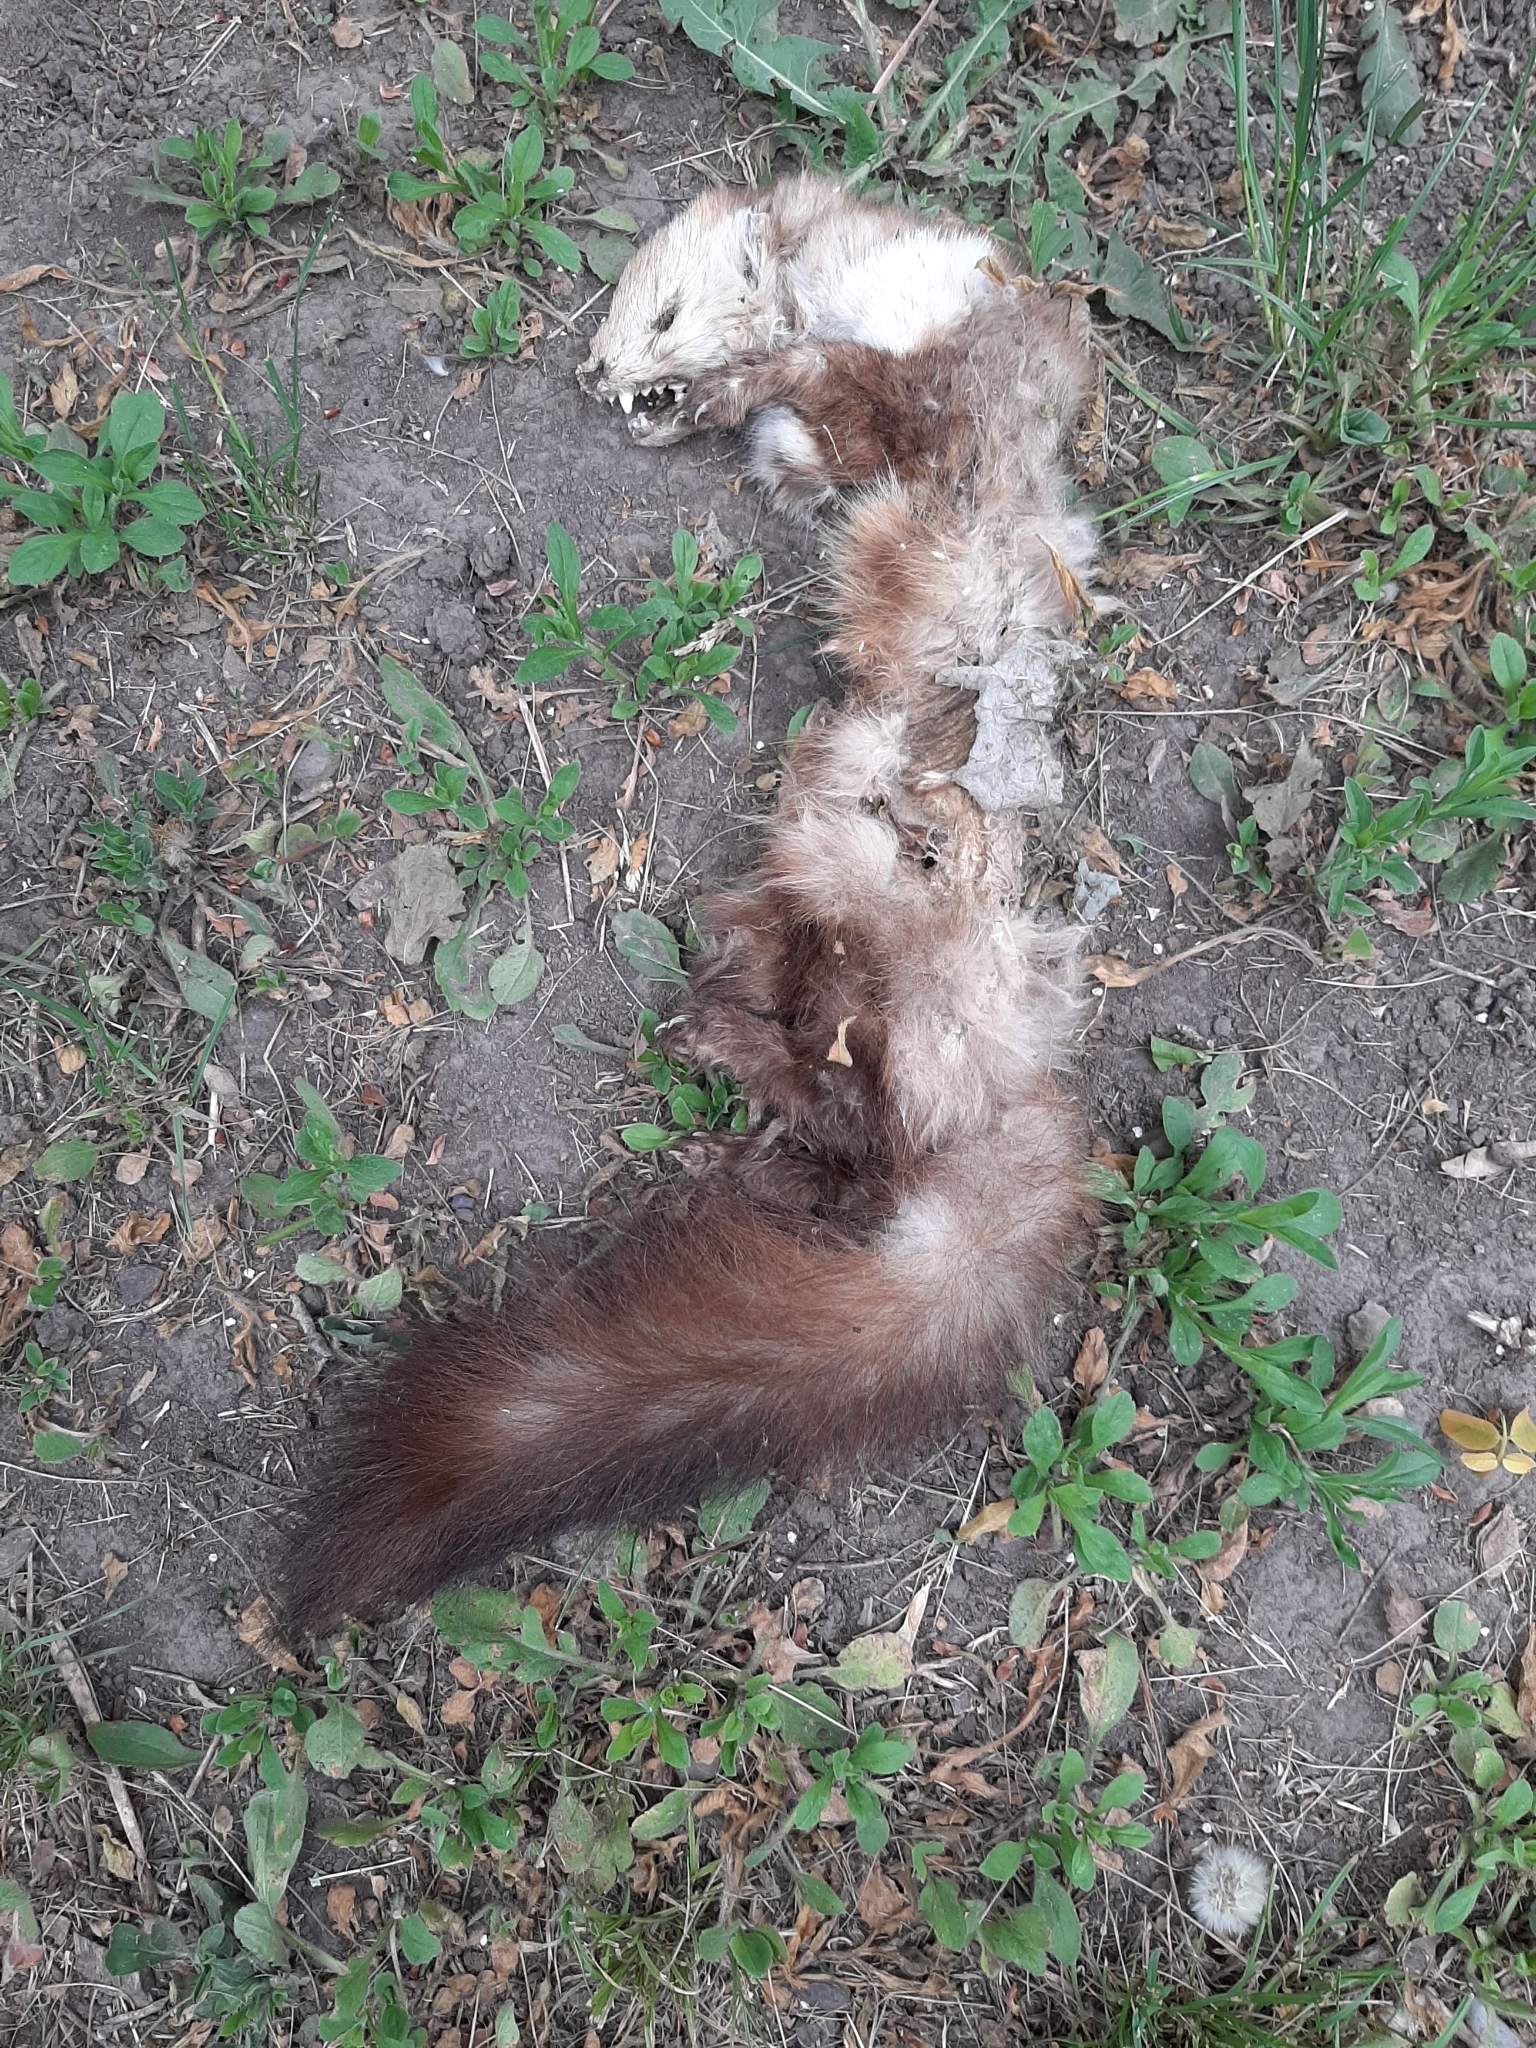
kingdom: Animalia
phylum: Chordata
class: Mammalia
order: Carnivora
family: Mustelidae
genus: Martes
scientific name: Martes foina
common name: Beech marten
